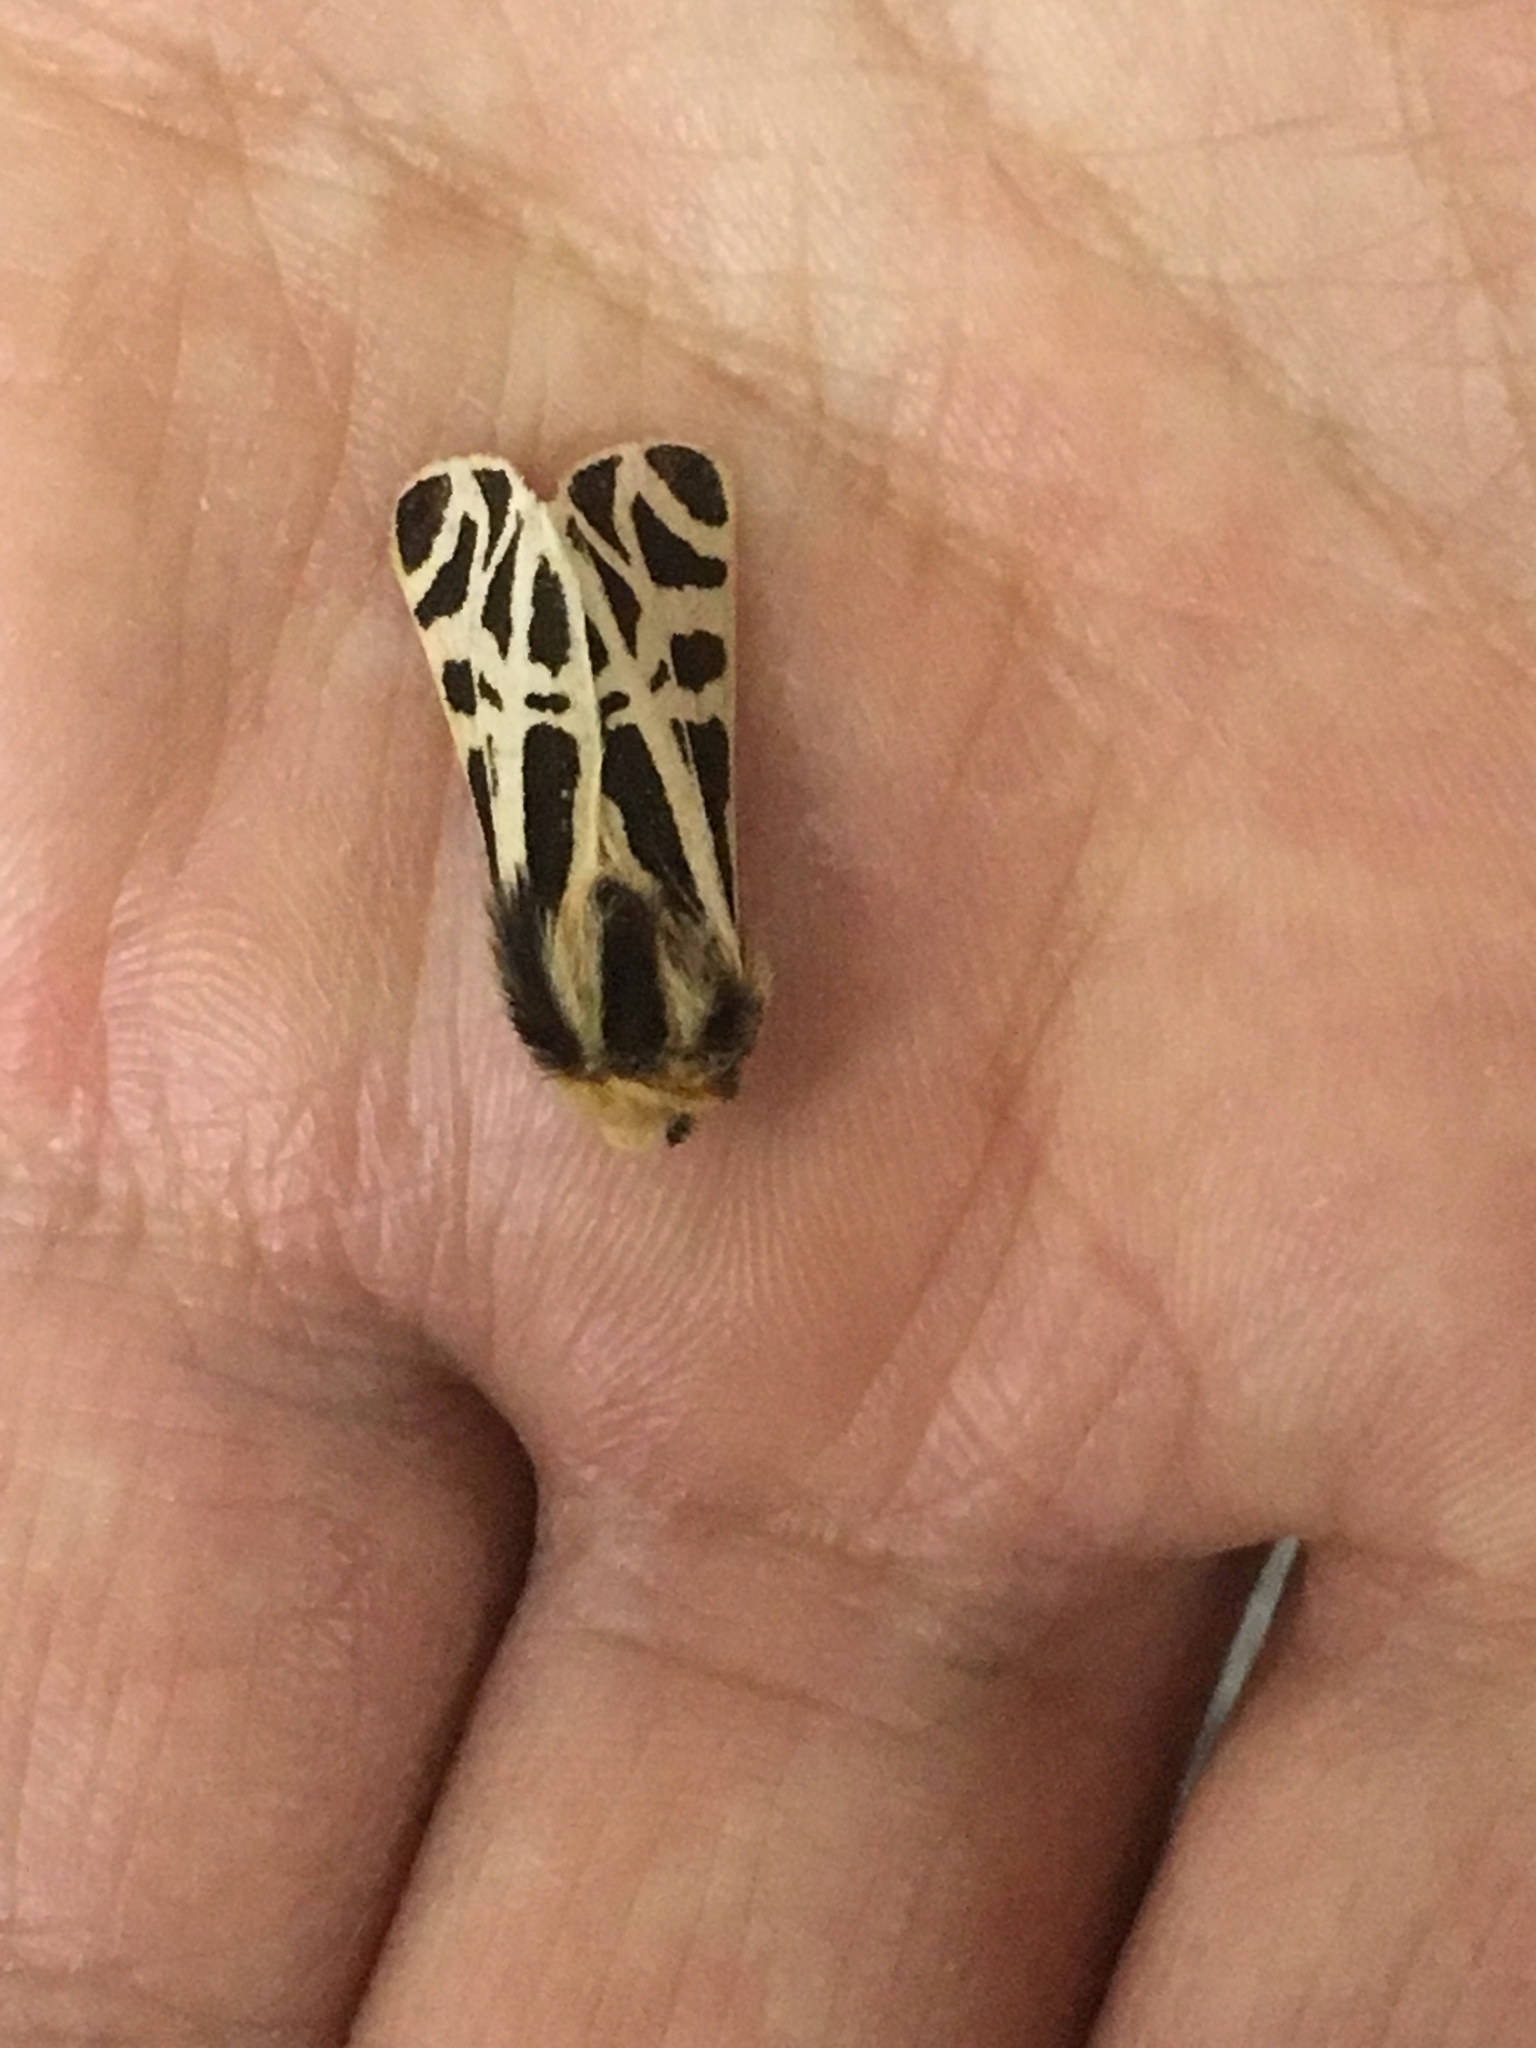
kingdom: Animalia
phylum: Arthropoda
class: Insecta
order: Lepidoptera
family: Erebidae
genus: Apantesis
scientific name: Apantesis
